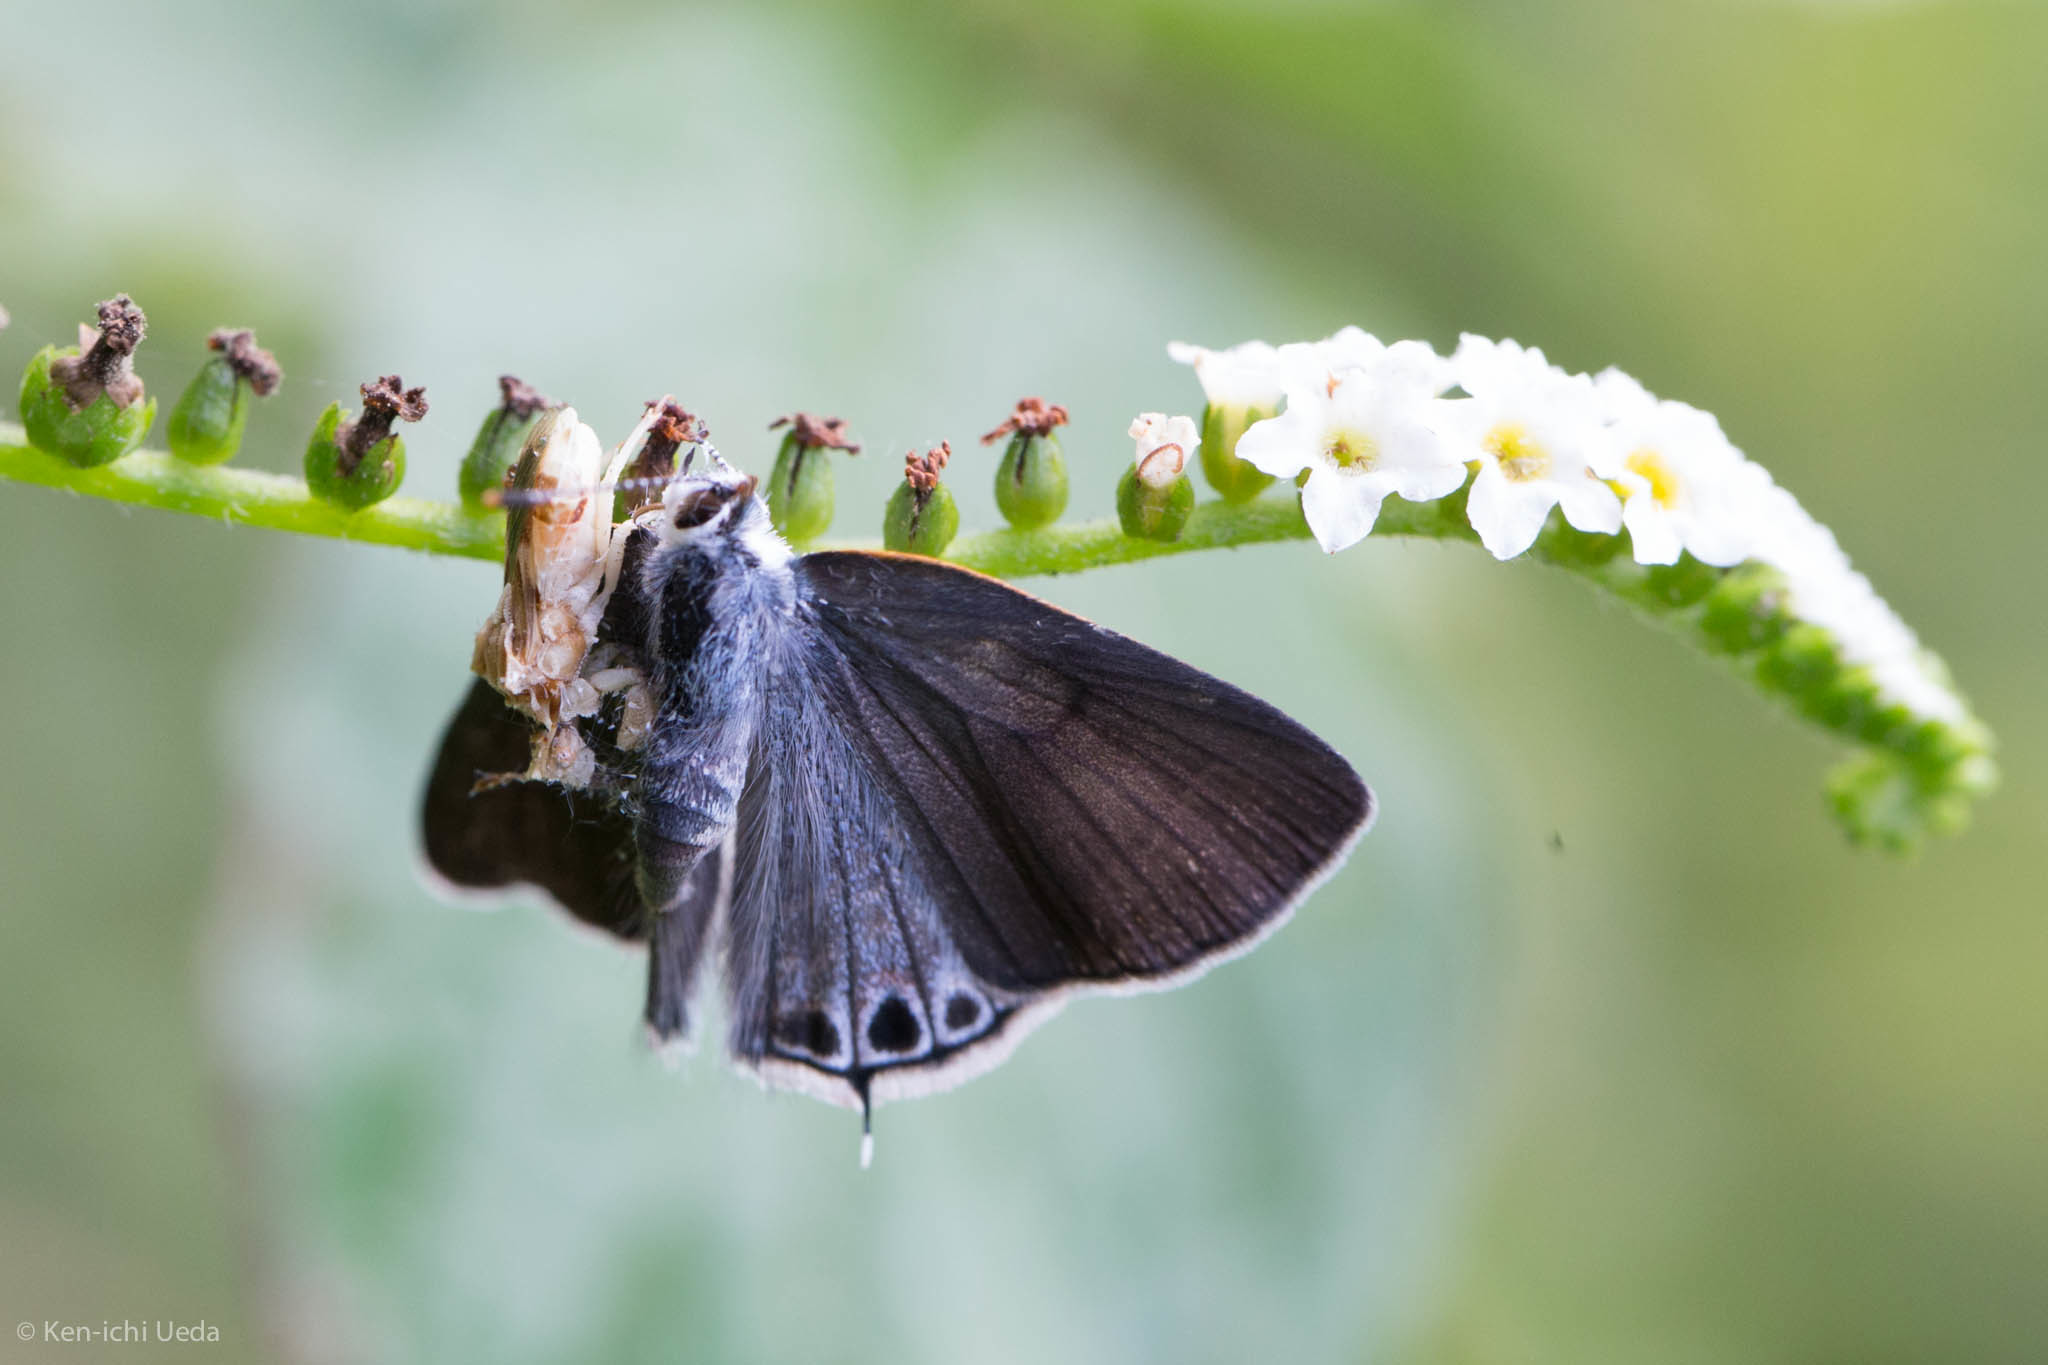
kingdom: Animalia
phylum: Arthropoda
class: Insecta
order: Lepidoptera
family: Lycaenidae
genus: Callicista
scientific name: Callicista columella
